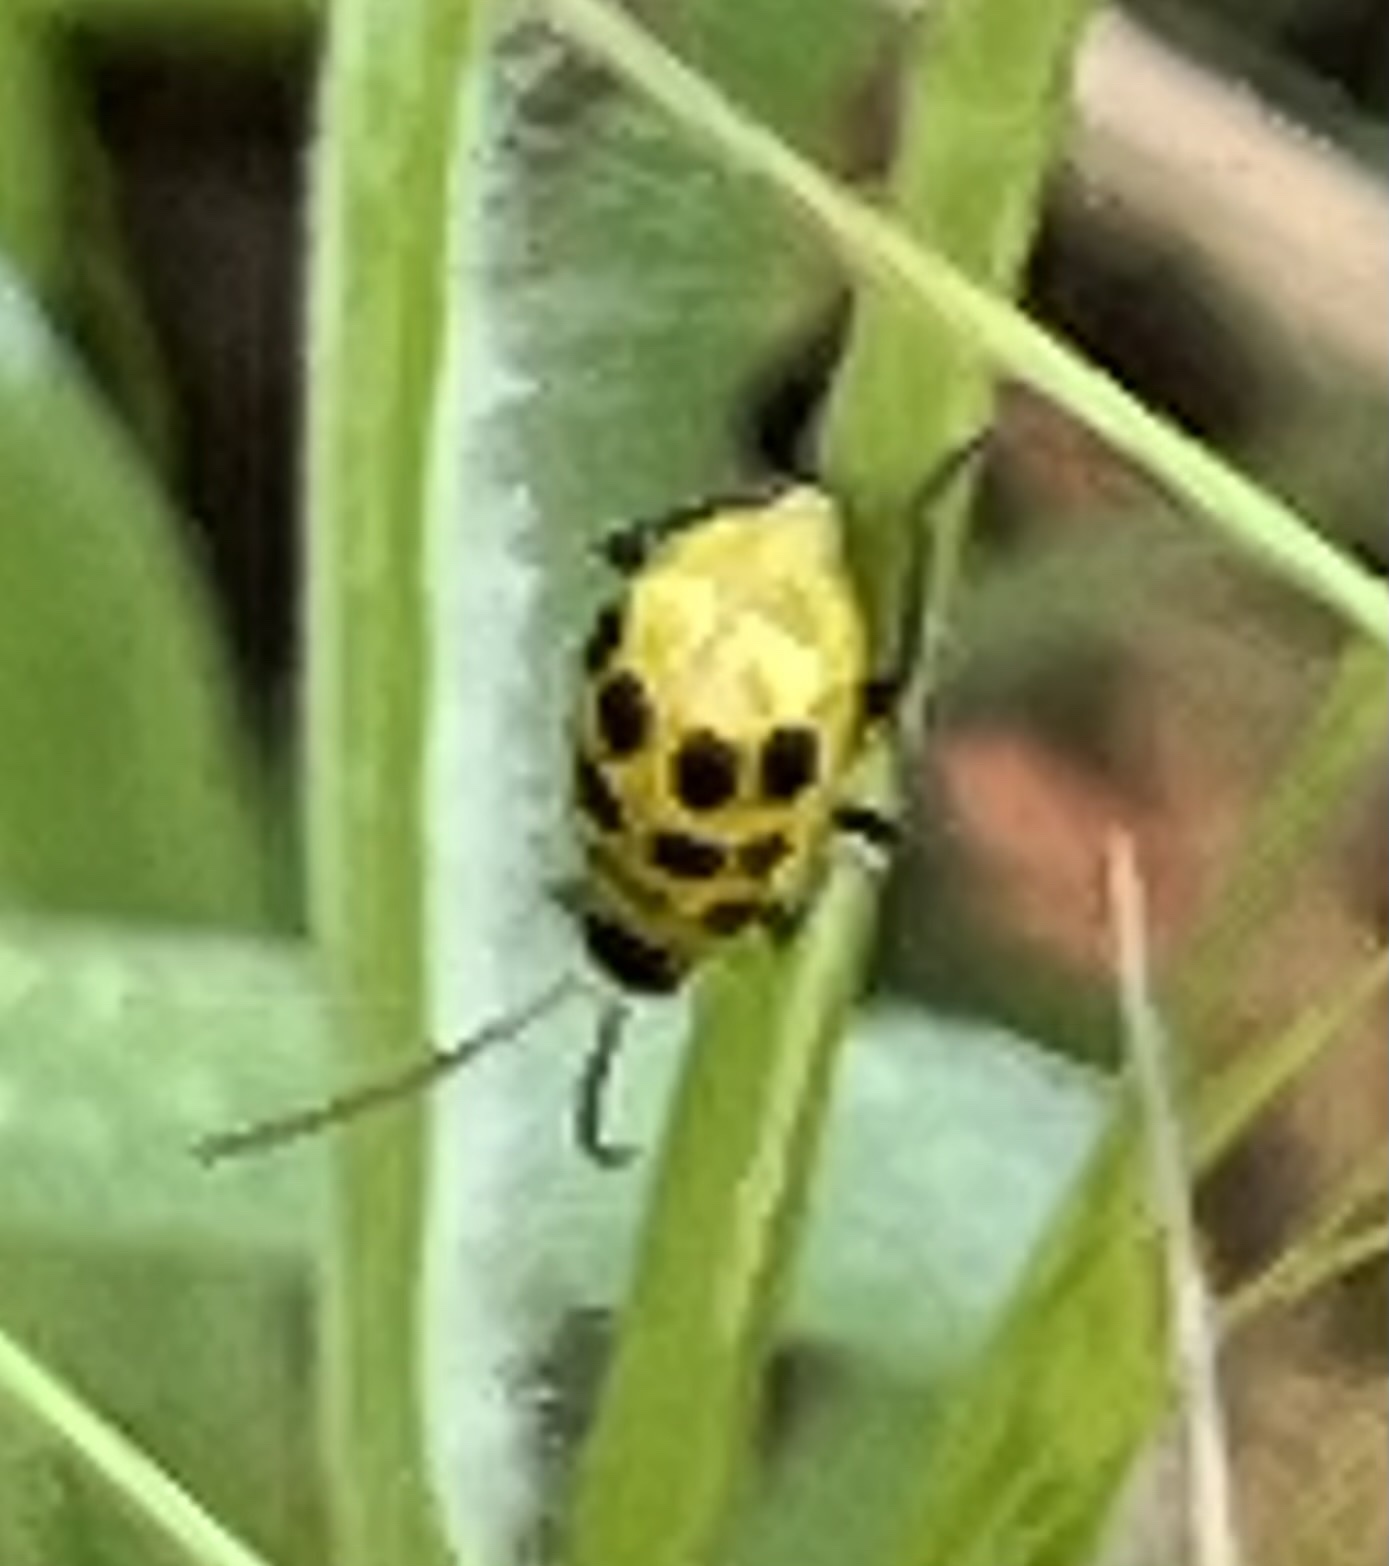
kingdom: Animalia
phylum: Arthropoda
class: Insecta
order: Coleoptera
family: Chrysomelidae
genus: Diabrotica
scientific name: Diabrotica undecimpunctata
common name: Spotted cucumber beetle
